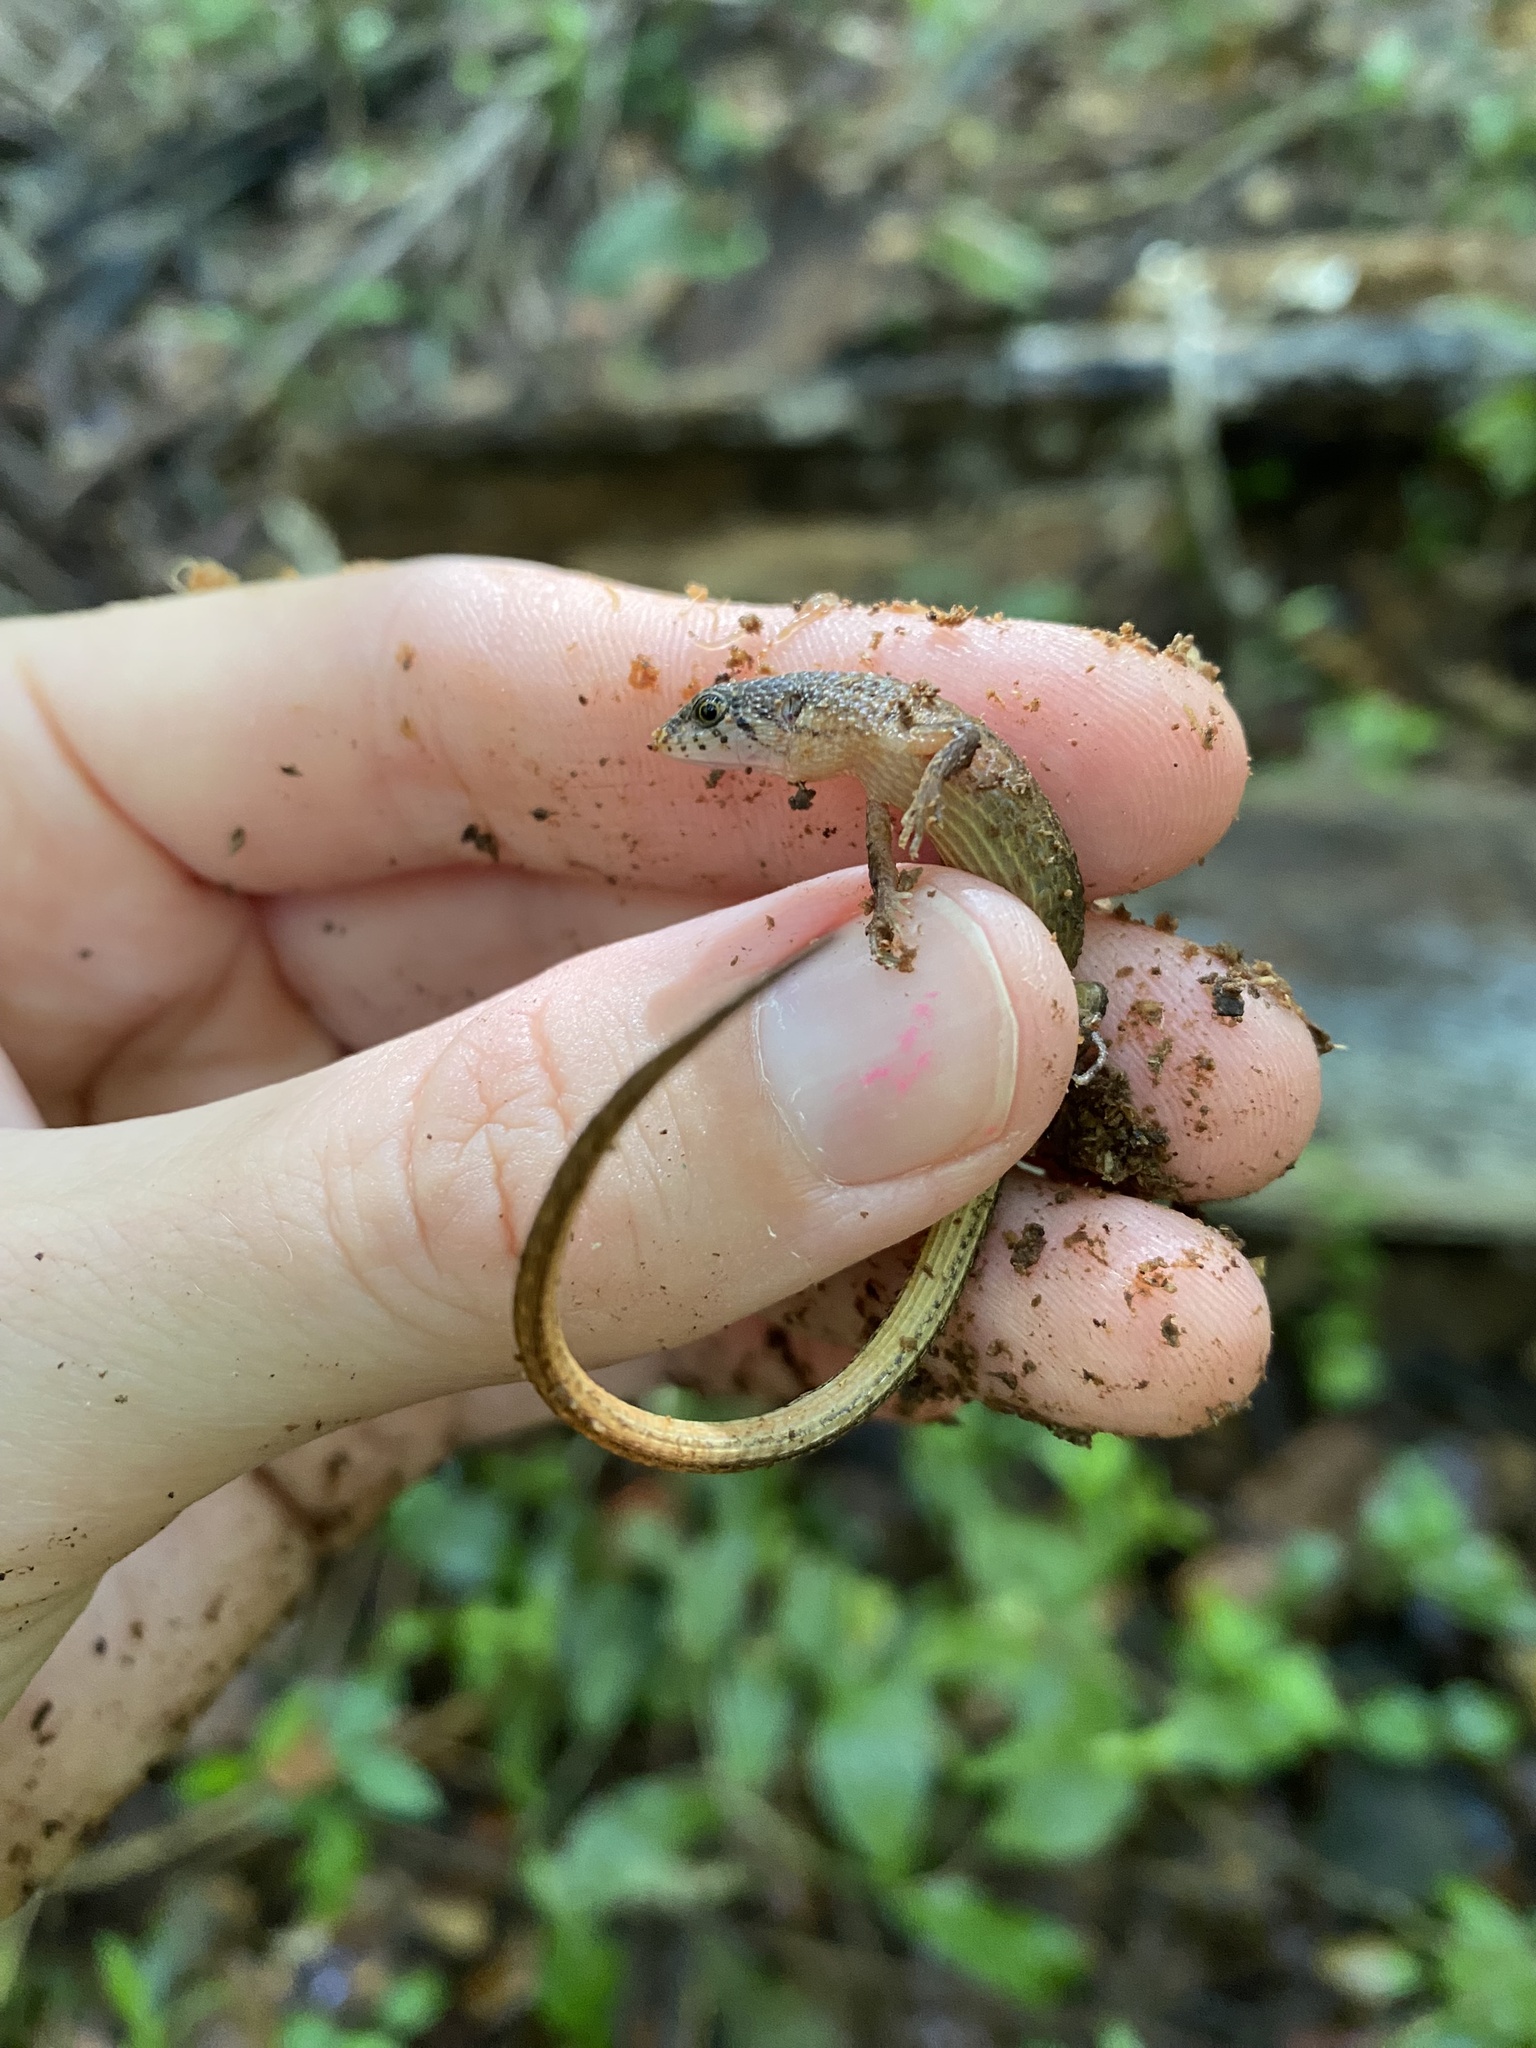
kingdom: Animalia
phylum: Chordata
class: Squamata
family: Gymnophthalmidae
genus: Loxopholis
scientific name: Loxopholis rugiceps
